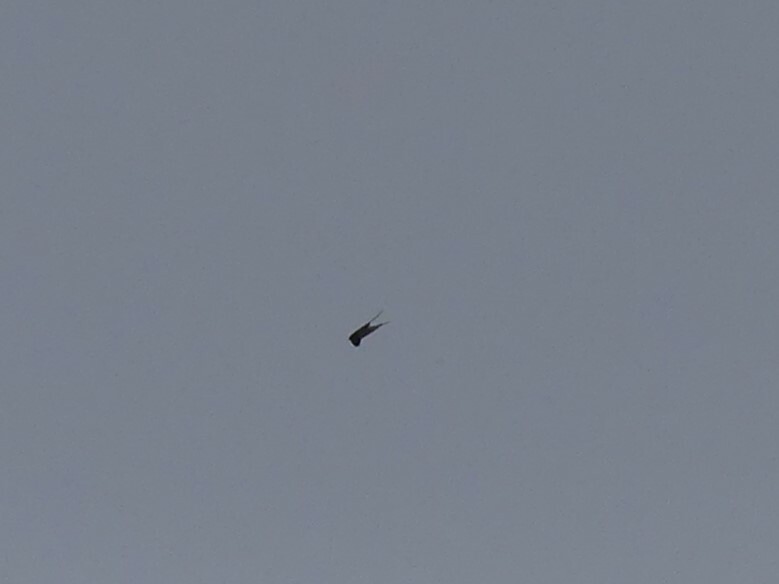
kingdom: Animalia
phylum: Chordata
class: Aves
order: Passeriformes
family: Hirundinidae
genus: Hirundo
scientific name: Hirundo rustica
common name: Barn swallow
